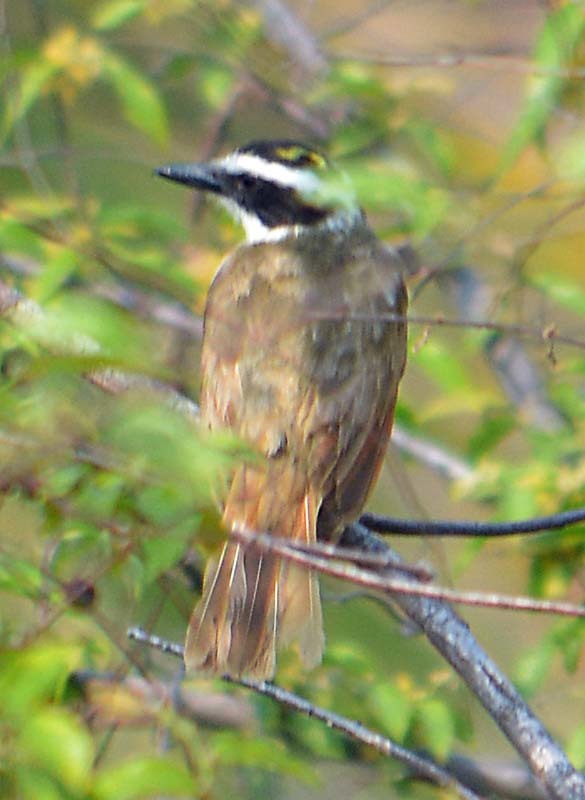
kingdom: Animalia
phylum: Chordata
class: Aves
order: Passeriformes
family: Tyrannidae
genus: Pitangus
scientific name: Pitangus sulphuratus
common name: Great kiskadee
